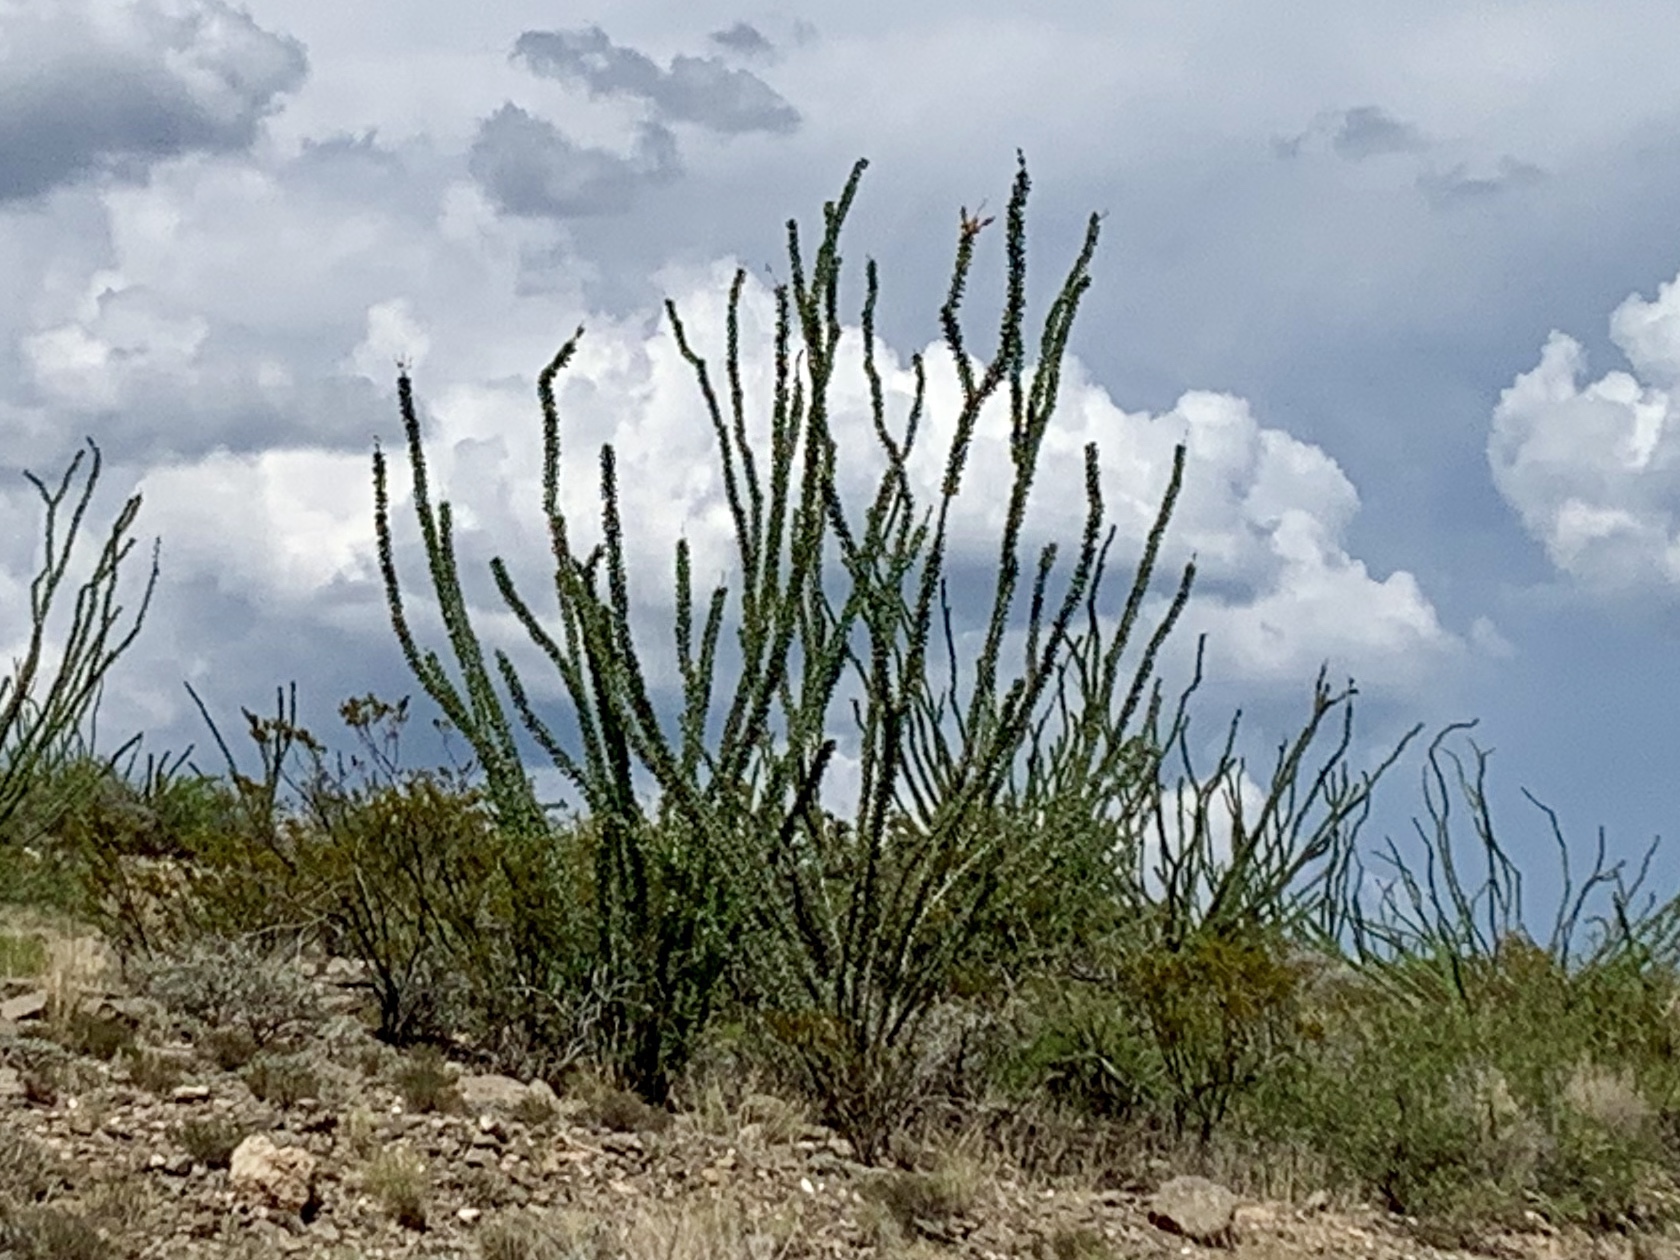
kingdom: Plantae
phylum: Tracheophyta
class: Magnoliopsida
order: Ericales
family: Fouquieriaceae
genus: Fouquieria
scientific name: Fouquieria splendens
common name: Vine-cactus
